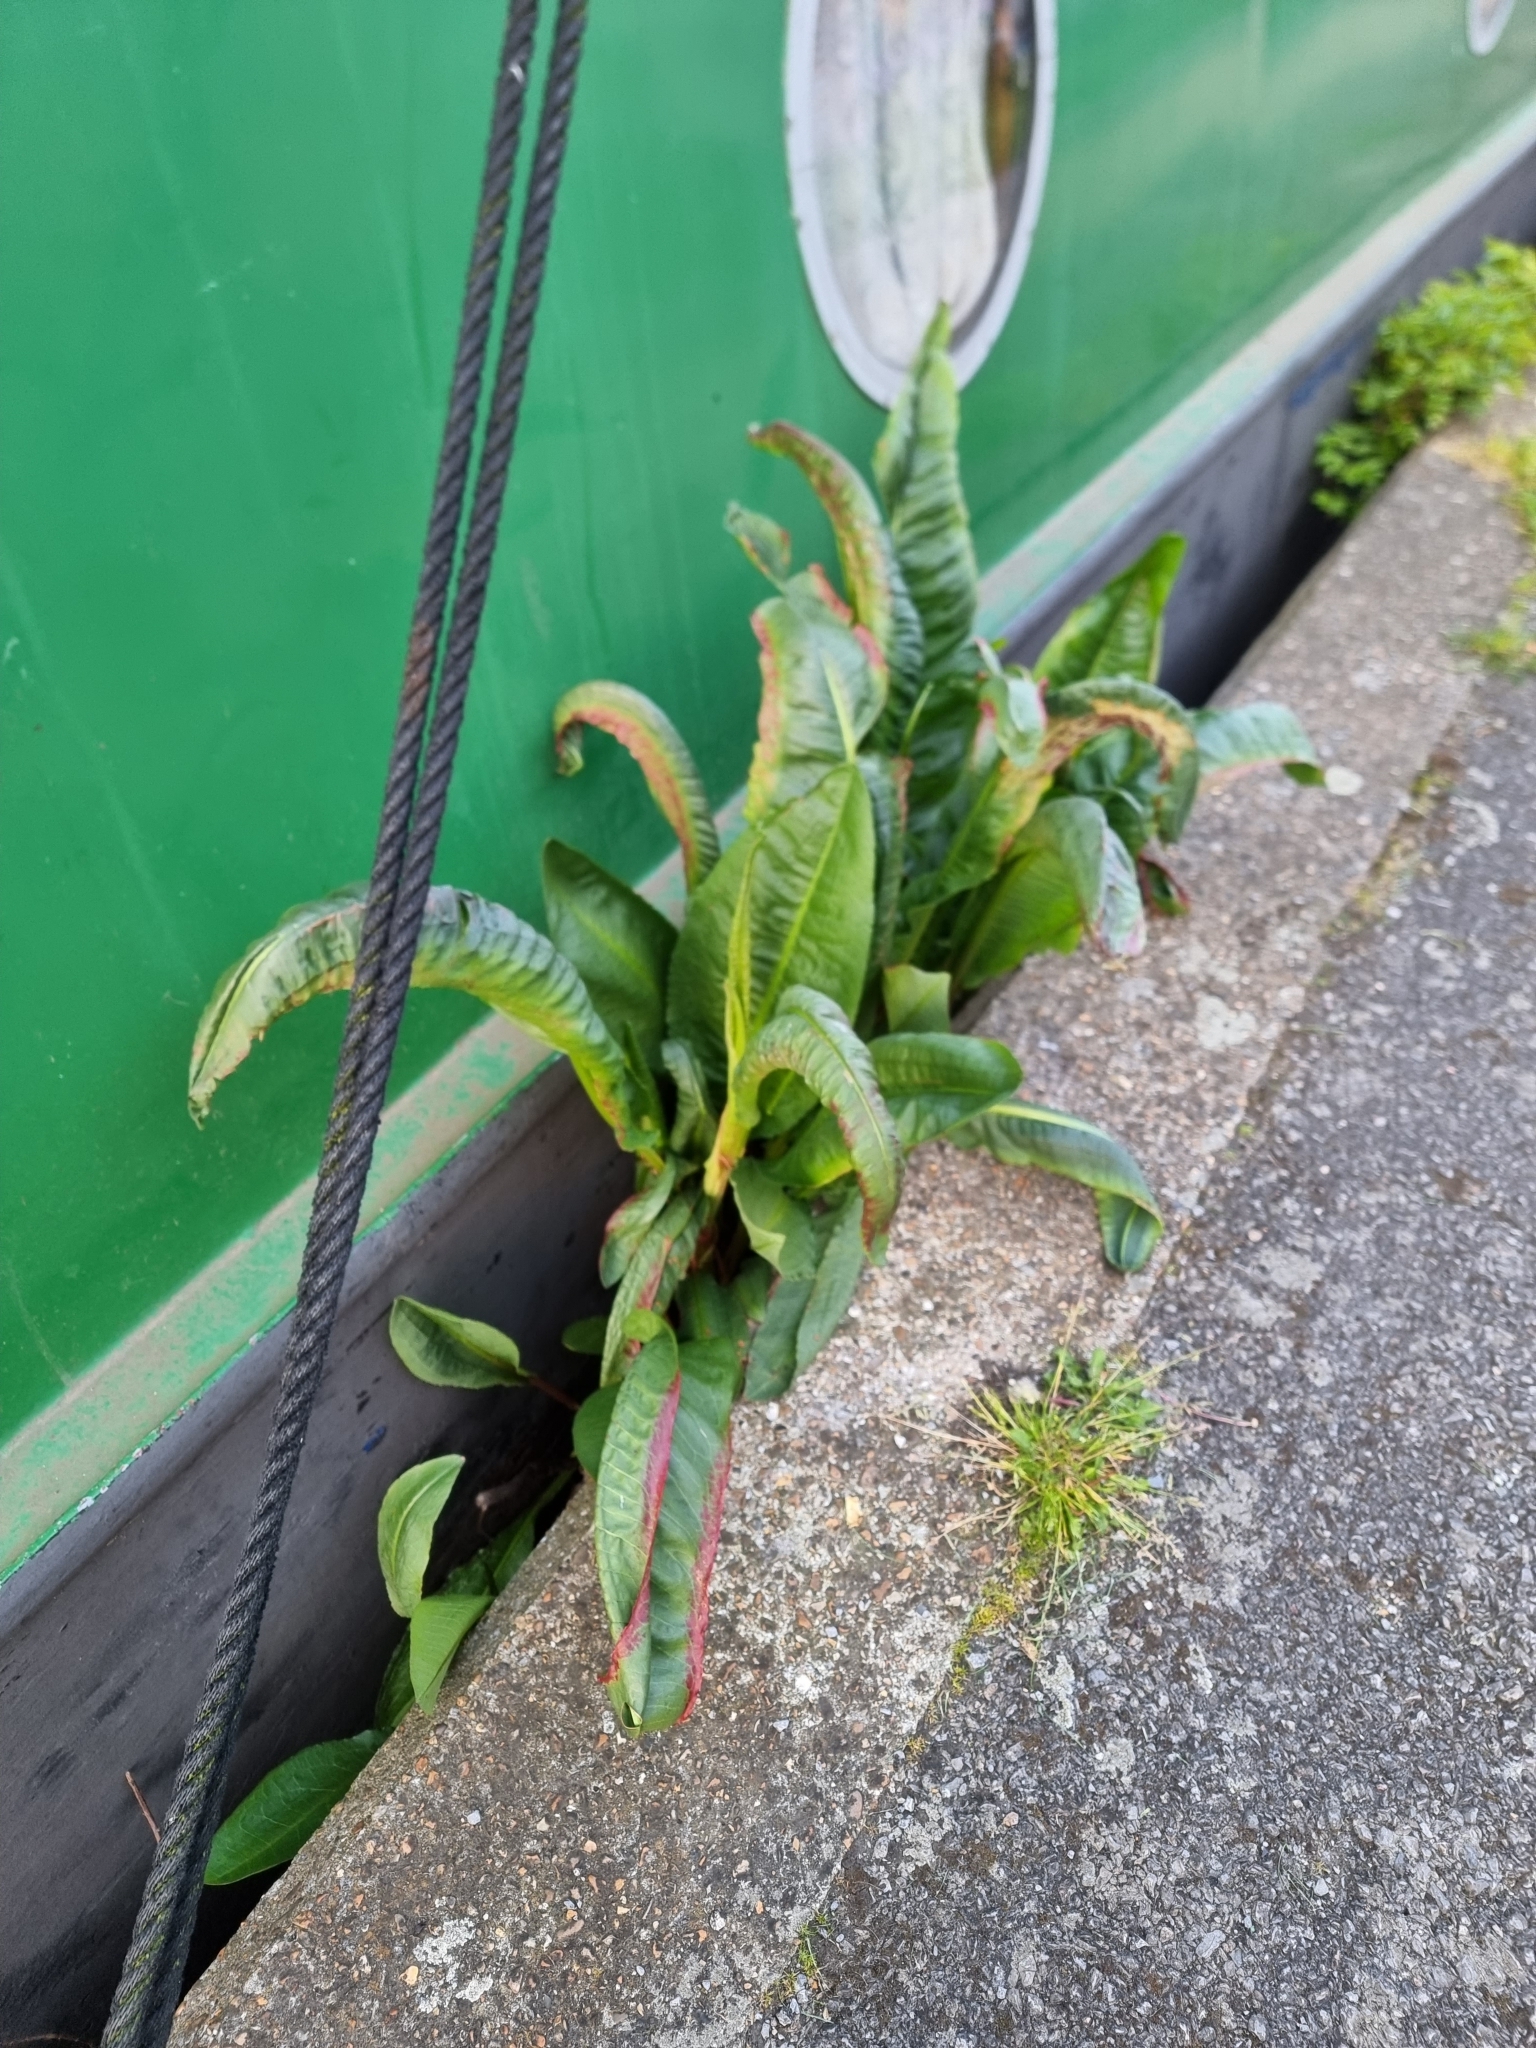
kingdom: Plantae
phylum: Tracheophyta
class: Magnoliopsida
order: Caryophyllales
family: Polygonaceae
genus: Rumex
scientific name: Rumex hydrolapathum
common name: Water dock
